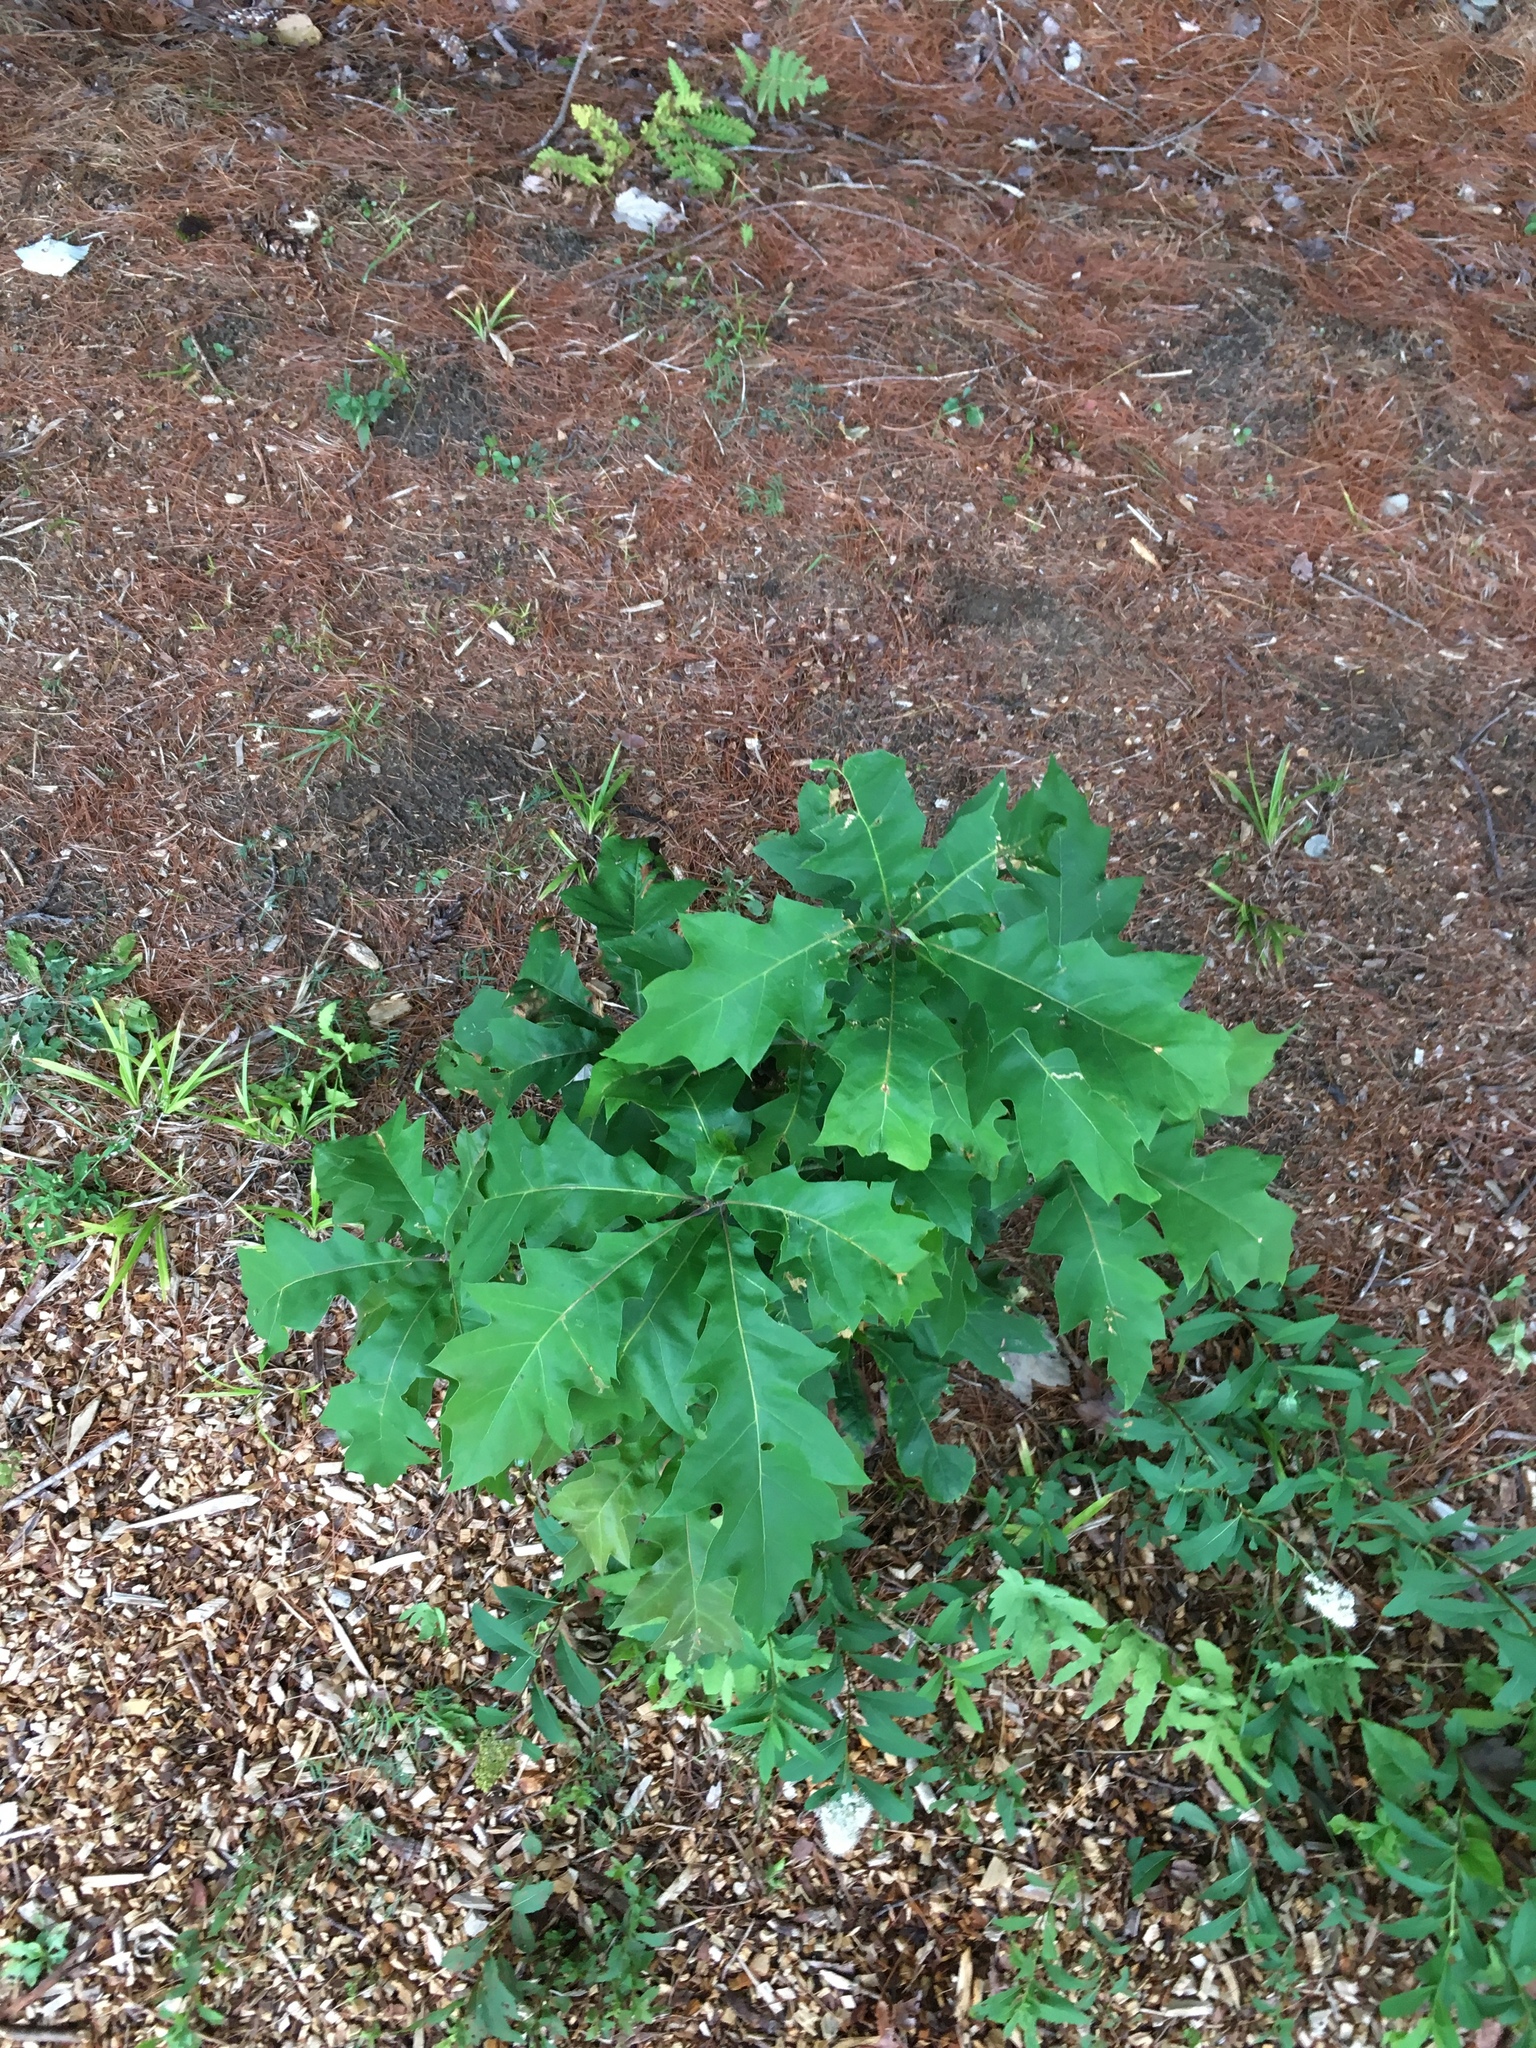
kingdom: Plantae
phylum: Tracheophyta
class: Magnoliopsida
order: Fagales
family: Fagaceae
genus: Quercus
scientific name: Quercus rubra
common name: Red oak
